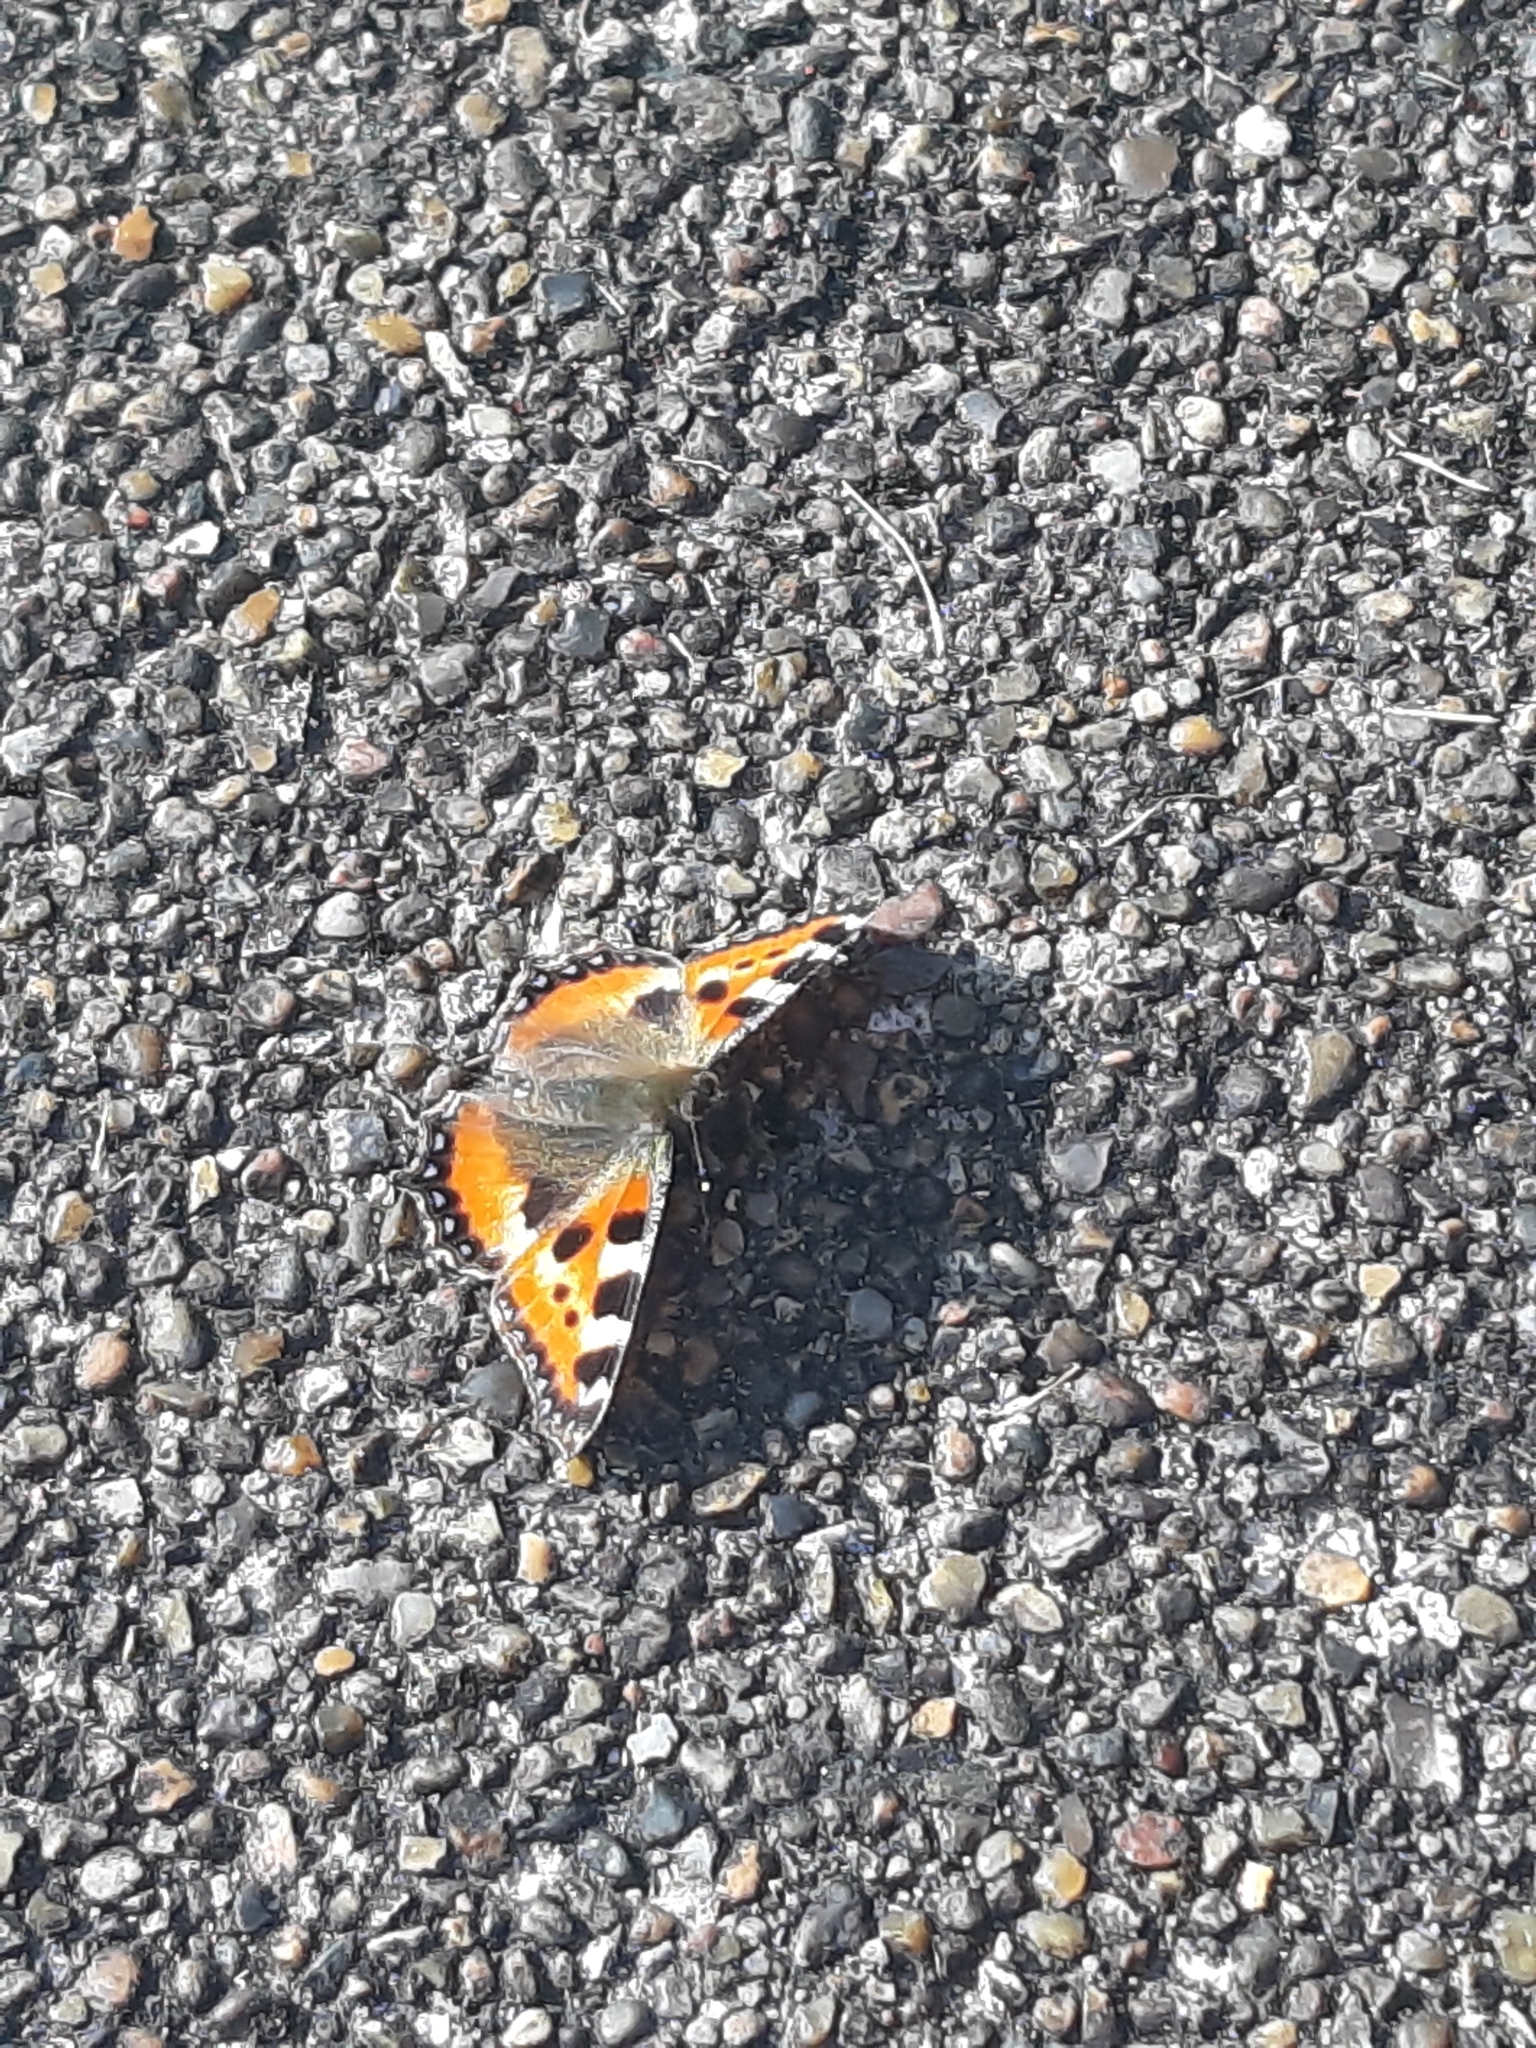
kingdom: Animalia
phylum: Arthropoda
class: Insecta
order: Lepidoptera
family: Nymphalidae
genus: Aglais
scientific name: Aglais urticae
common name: Small tortoiseshell
